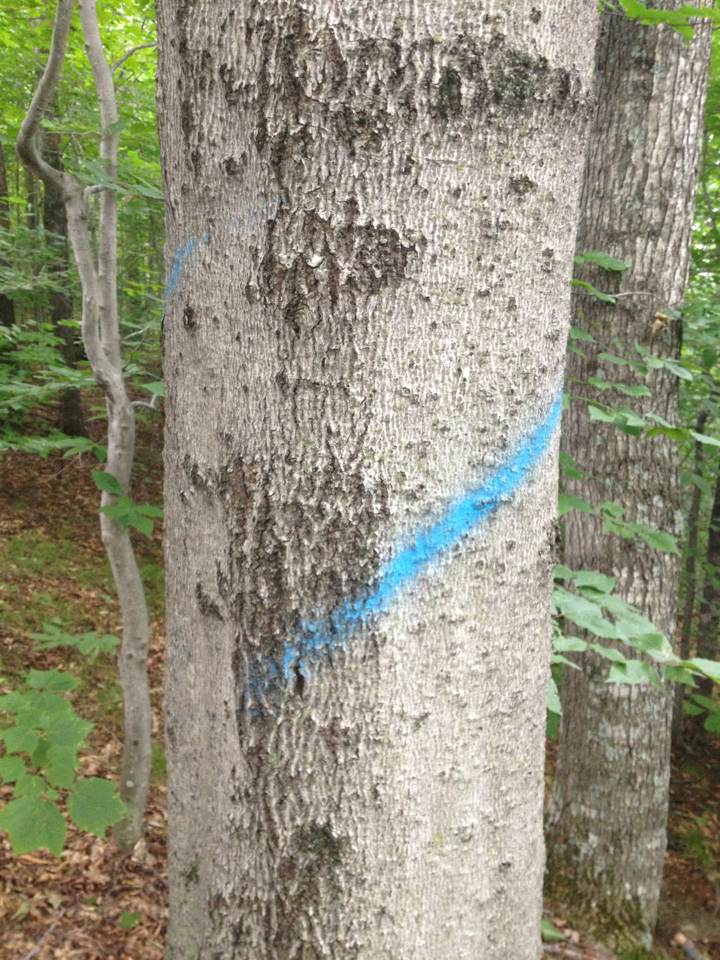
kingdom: Plantae
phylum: Tracheophyta
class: Magnoliopsida
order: Fagales
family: Fagaceae
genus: Fagus
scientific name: Fagus grandifolia
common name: American beech
